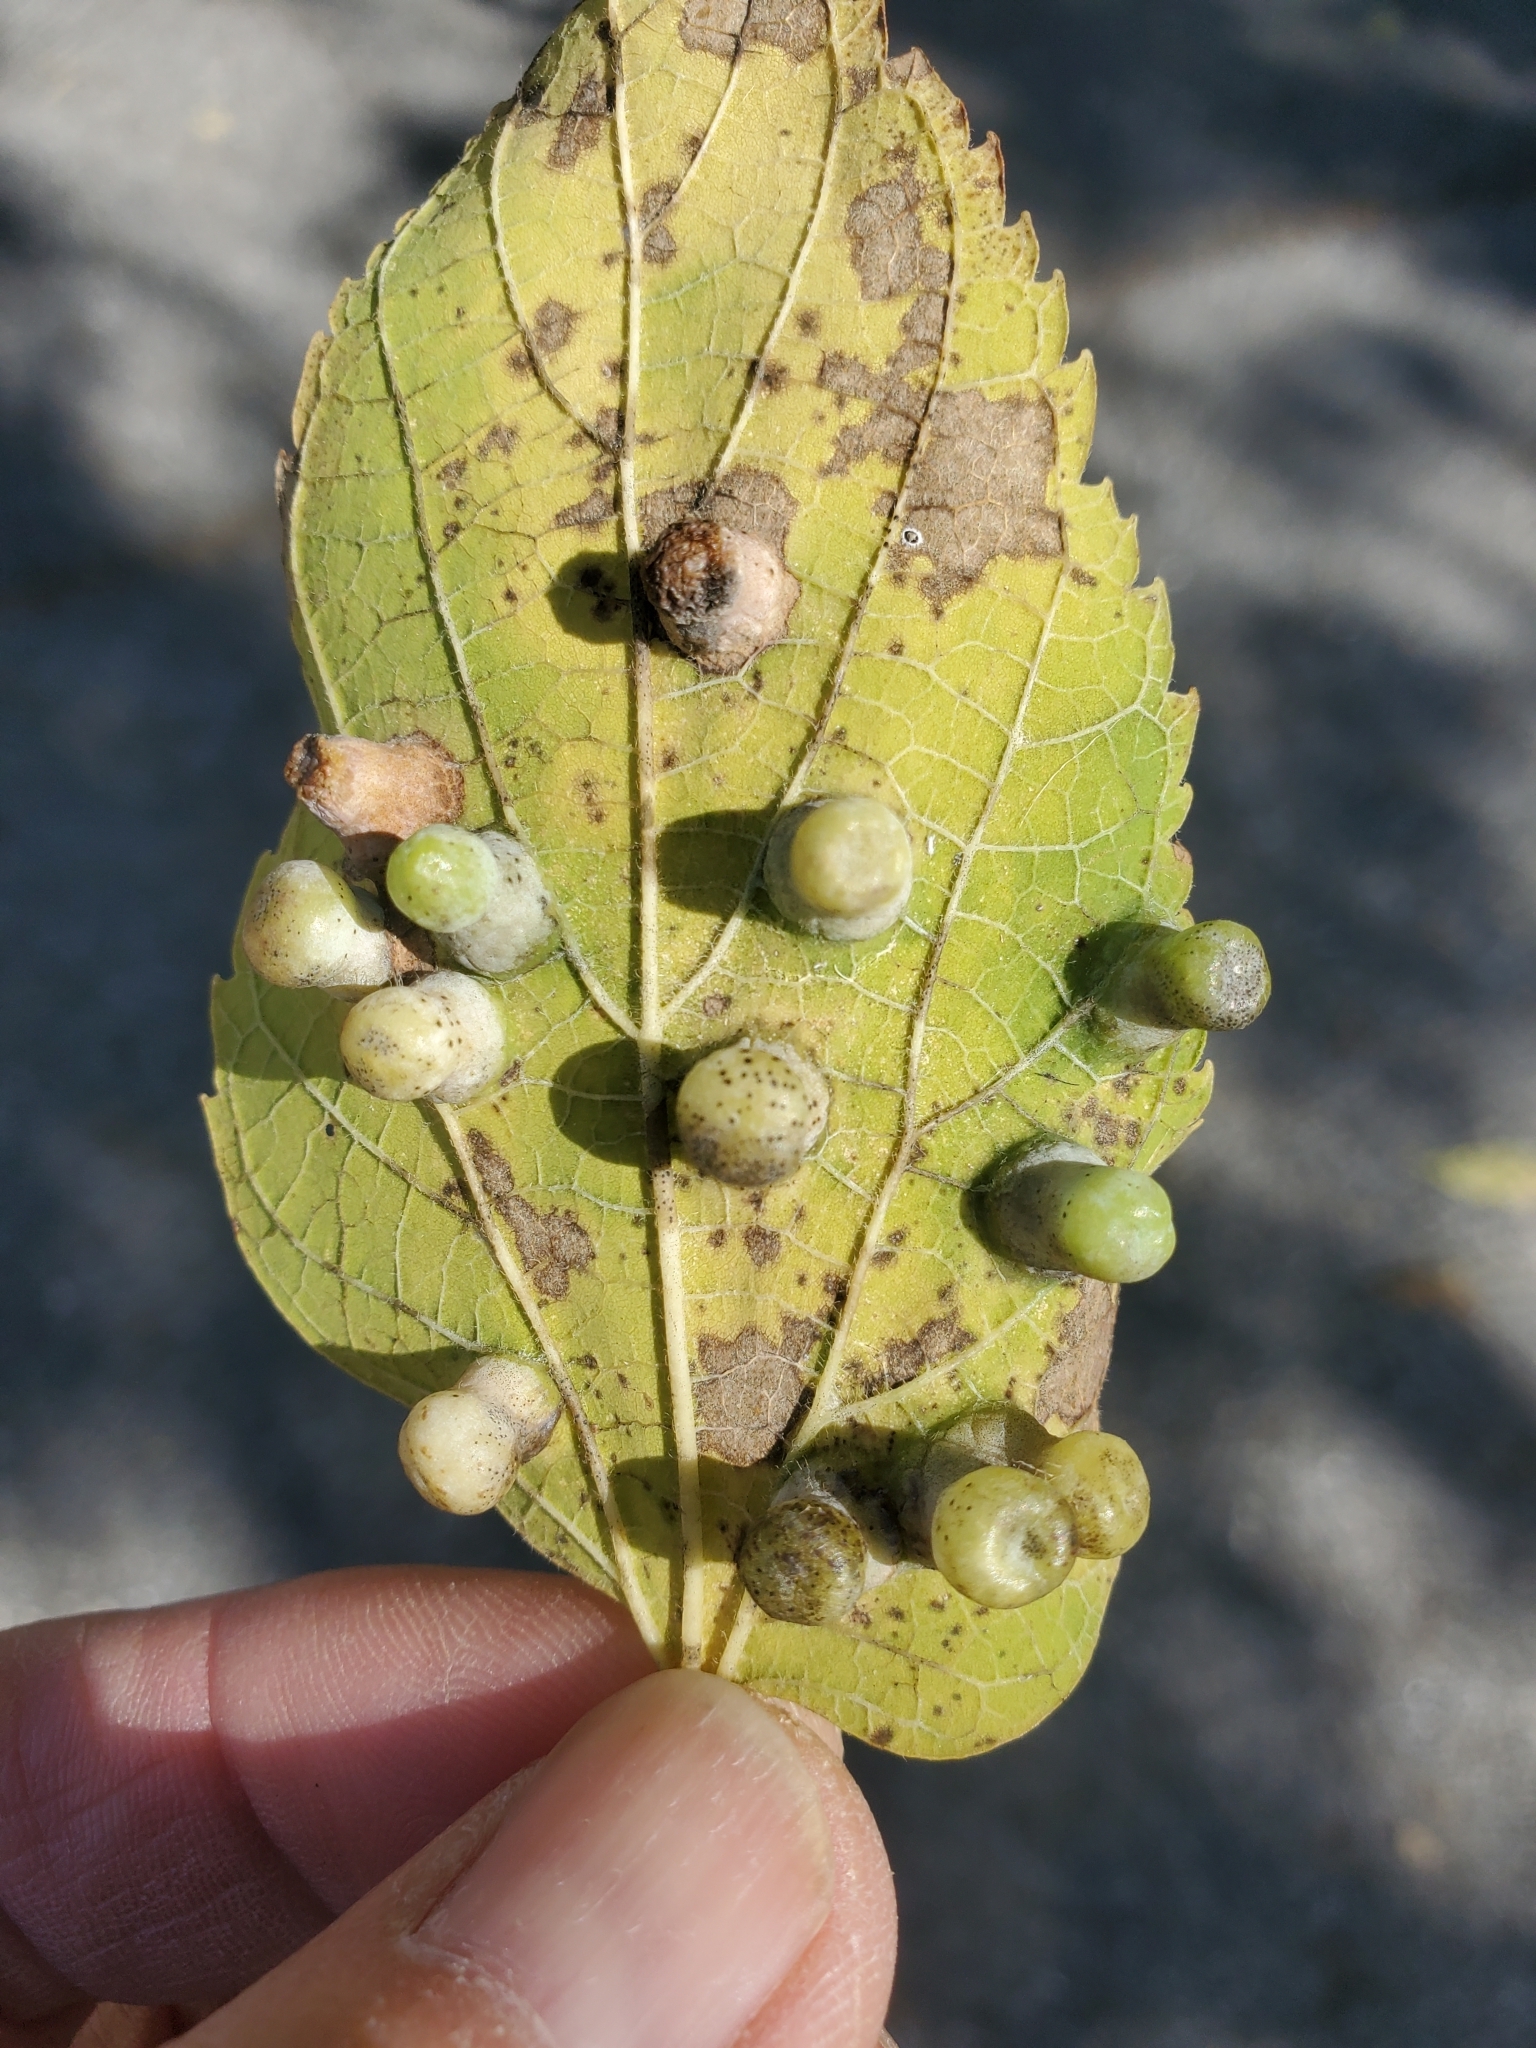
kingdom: Animalia
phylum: Arthropoda
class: Insecta
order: Hemiptera
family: Aphalaridae
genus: Pachypsylla
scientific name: Pachypsylla celtidismamma
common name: Hackberry nipplegall psyllid
